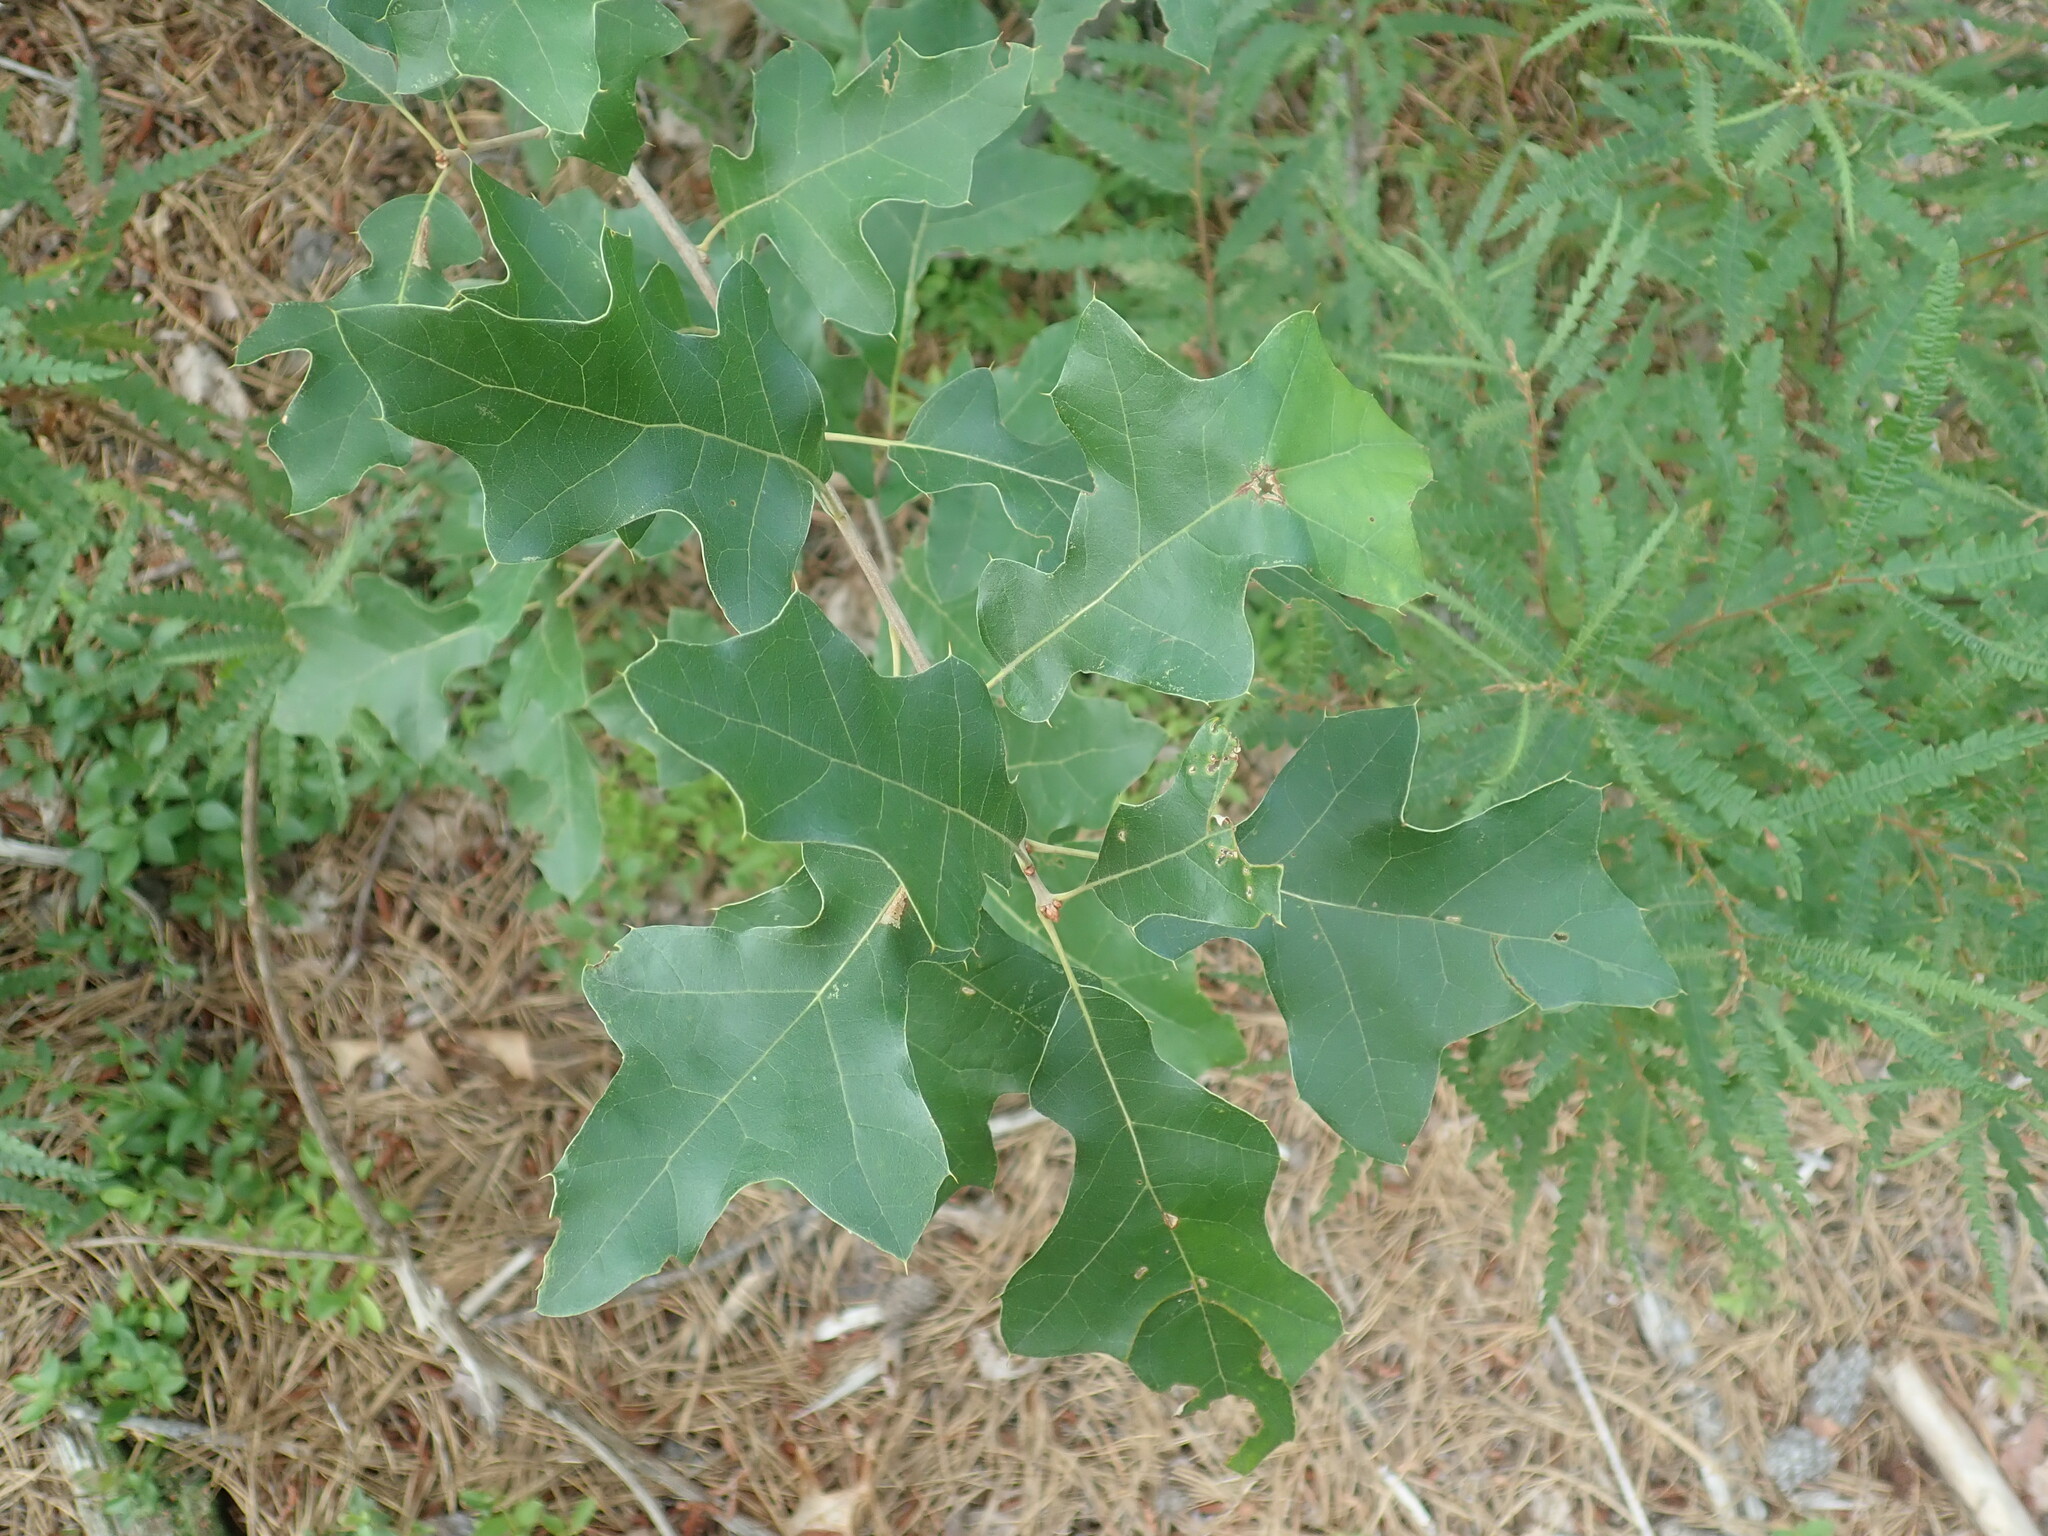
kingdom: Plantae
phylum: Tracheophyta
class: Magnoliopsida
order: Fagales
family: Fagaceae
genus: Quercus
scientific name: Quercus ilicifolia
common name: Bear oak
